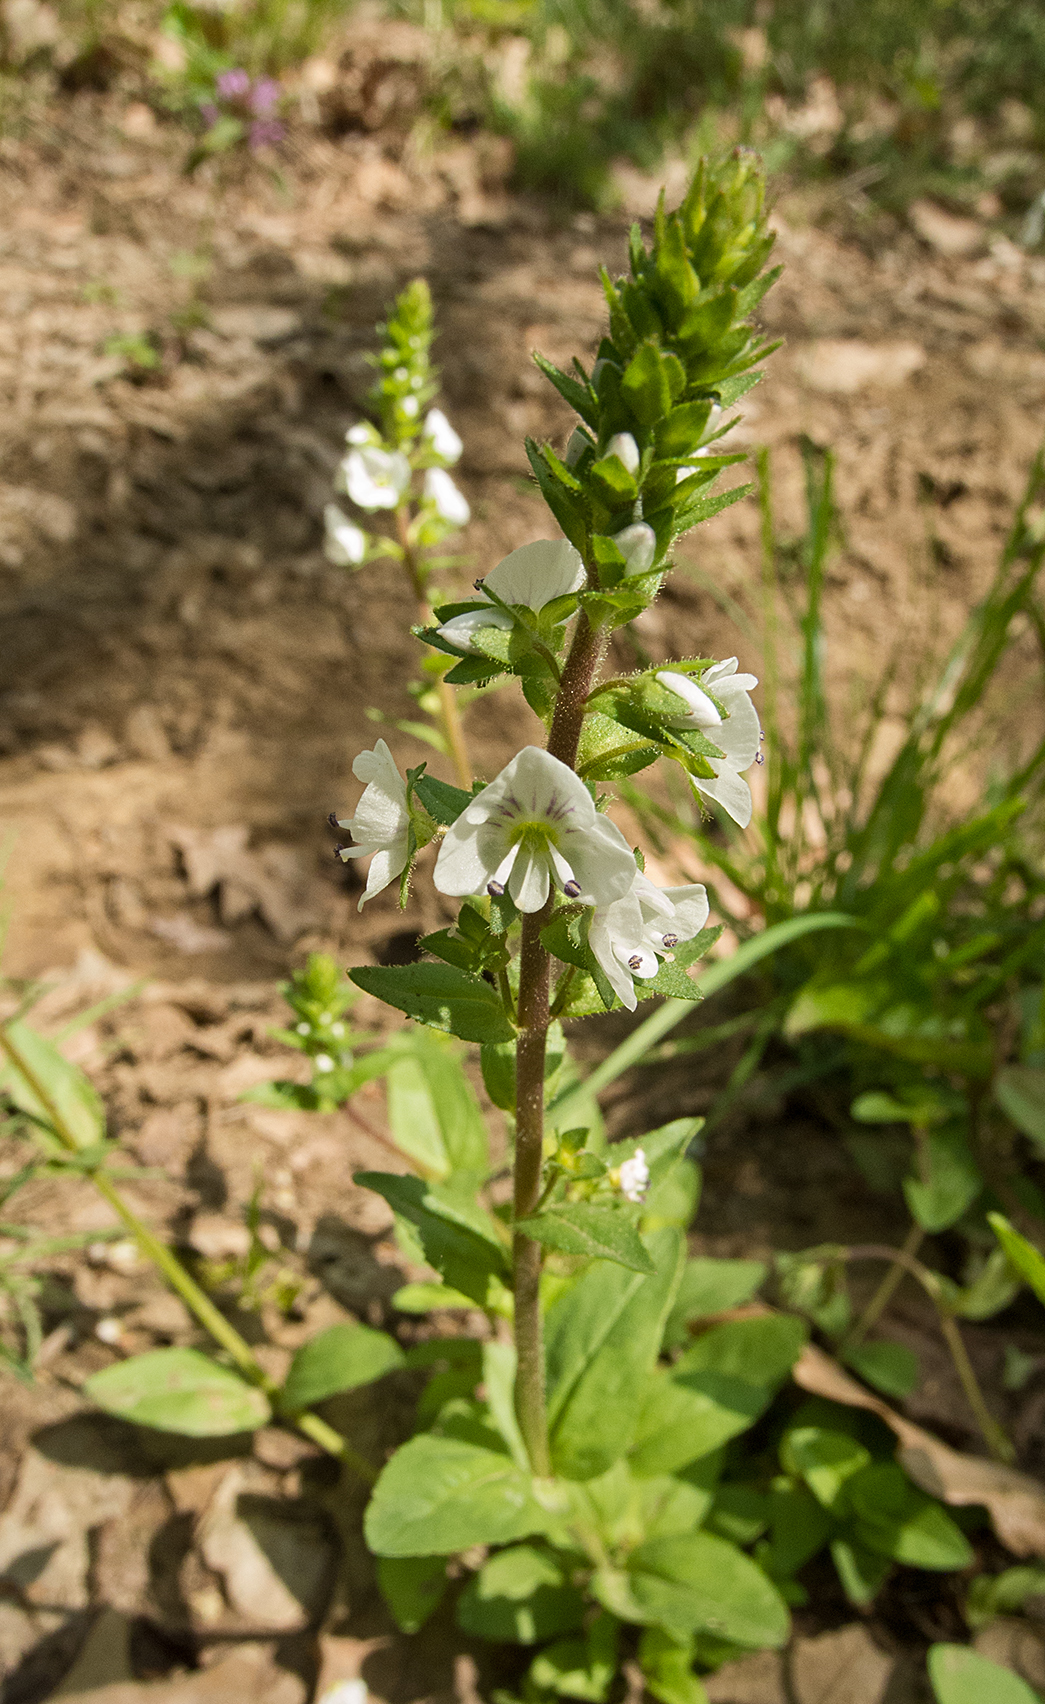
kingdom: Plantae
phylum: Tracheophyta
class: Magnoliopsida
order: Lamiales
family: Plantaginaceae
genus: Veronica
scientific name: Veronica serpyllifolia
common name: Thyme-leaved speedwell
